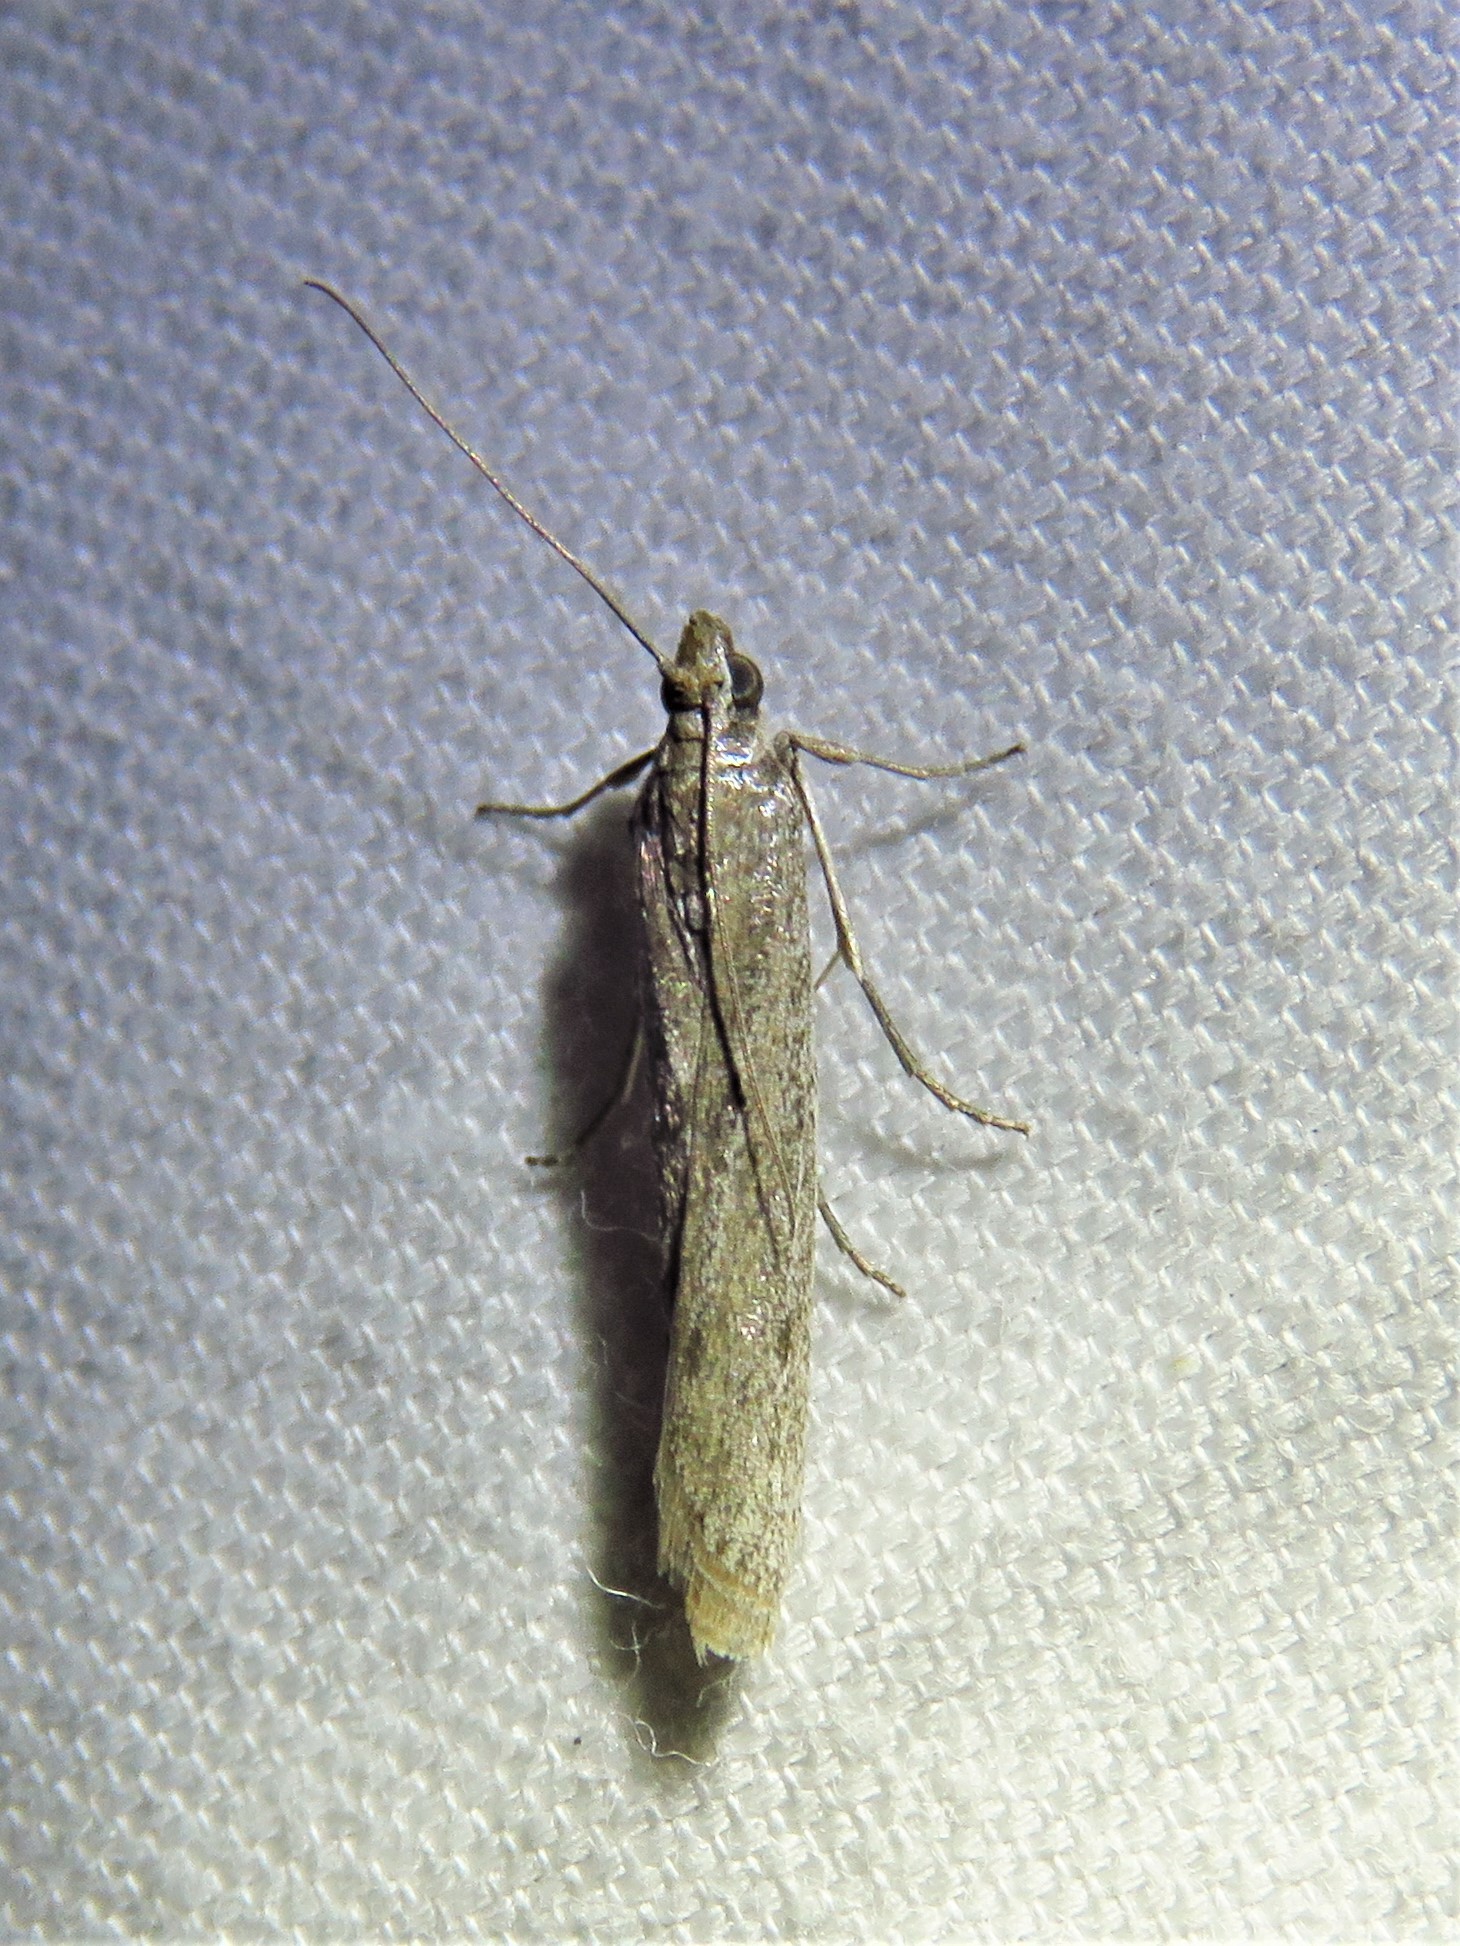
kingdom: Animalia
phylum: Arthropoda
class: Insecta
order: Lepidoptera
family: Pyralidae
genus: Homoeosoma
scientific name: Homoeosoma electella
